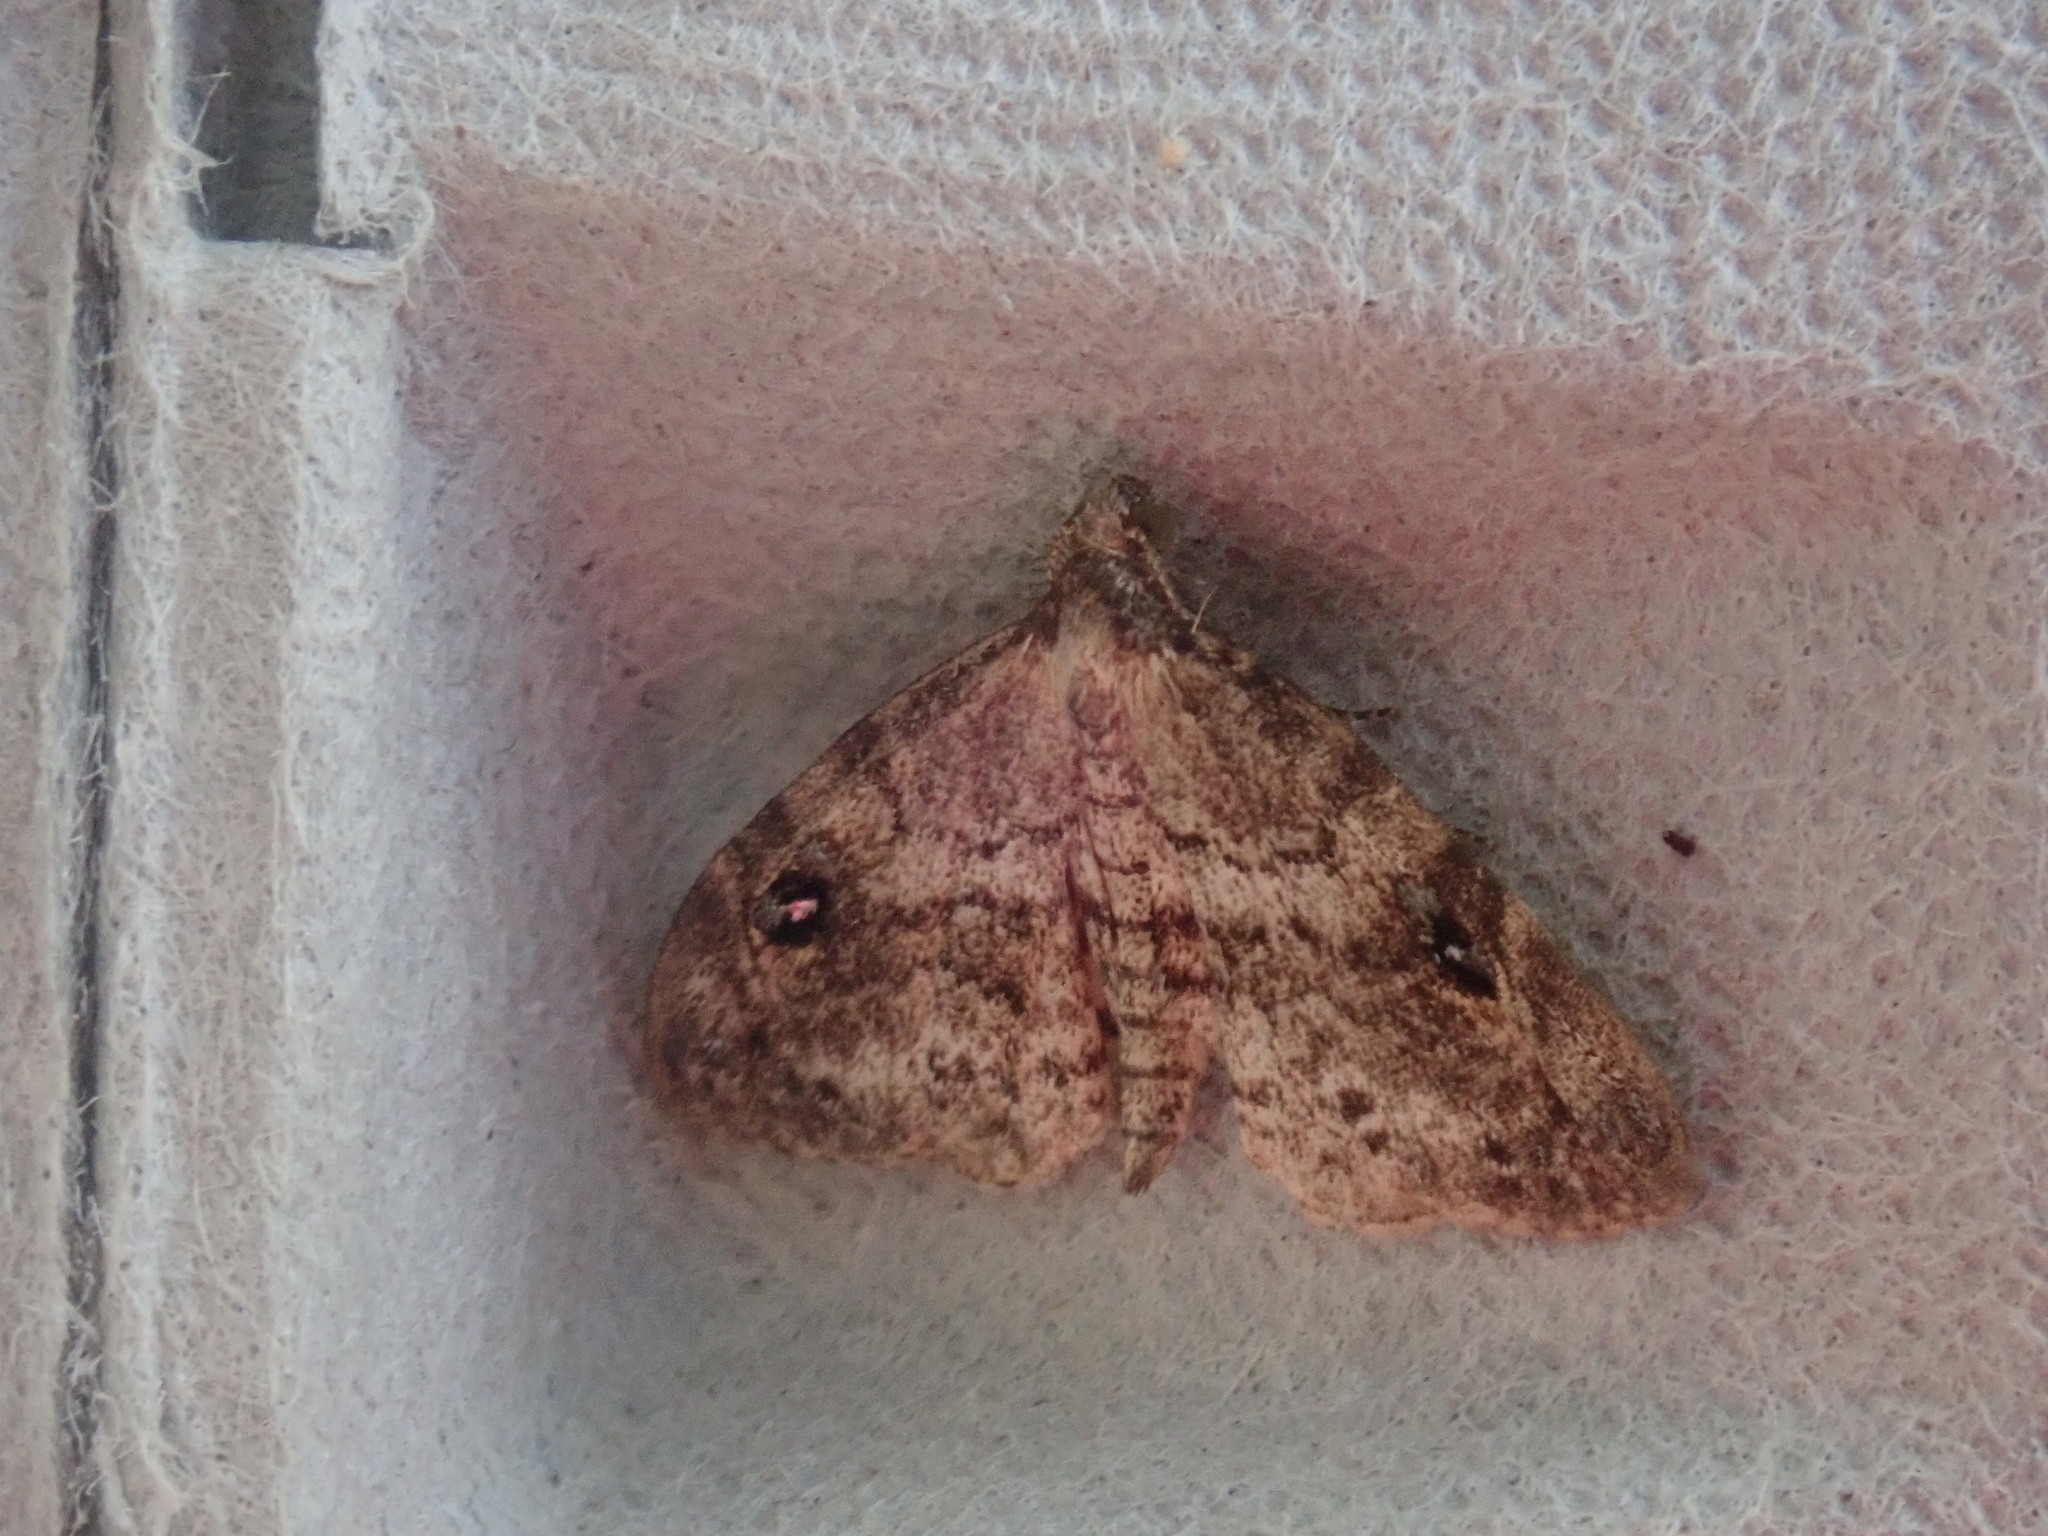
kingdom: Animalia
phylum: Arthropoda
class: Insecta
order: Lepidoptera
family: Erebidae
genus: Melanomma
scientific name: Melanomma auricinctaria
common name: Gold-lined melanomma moth
